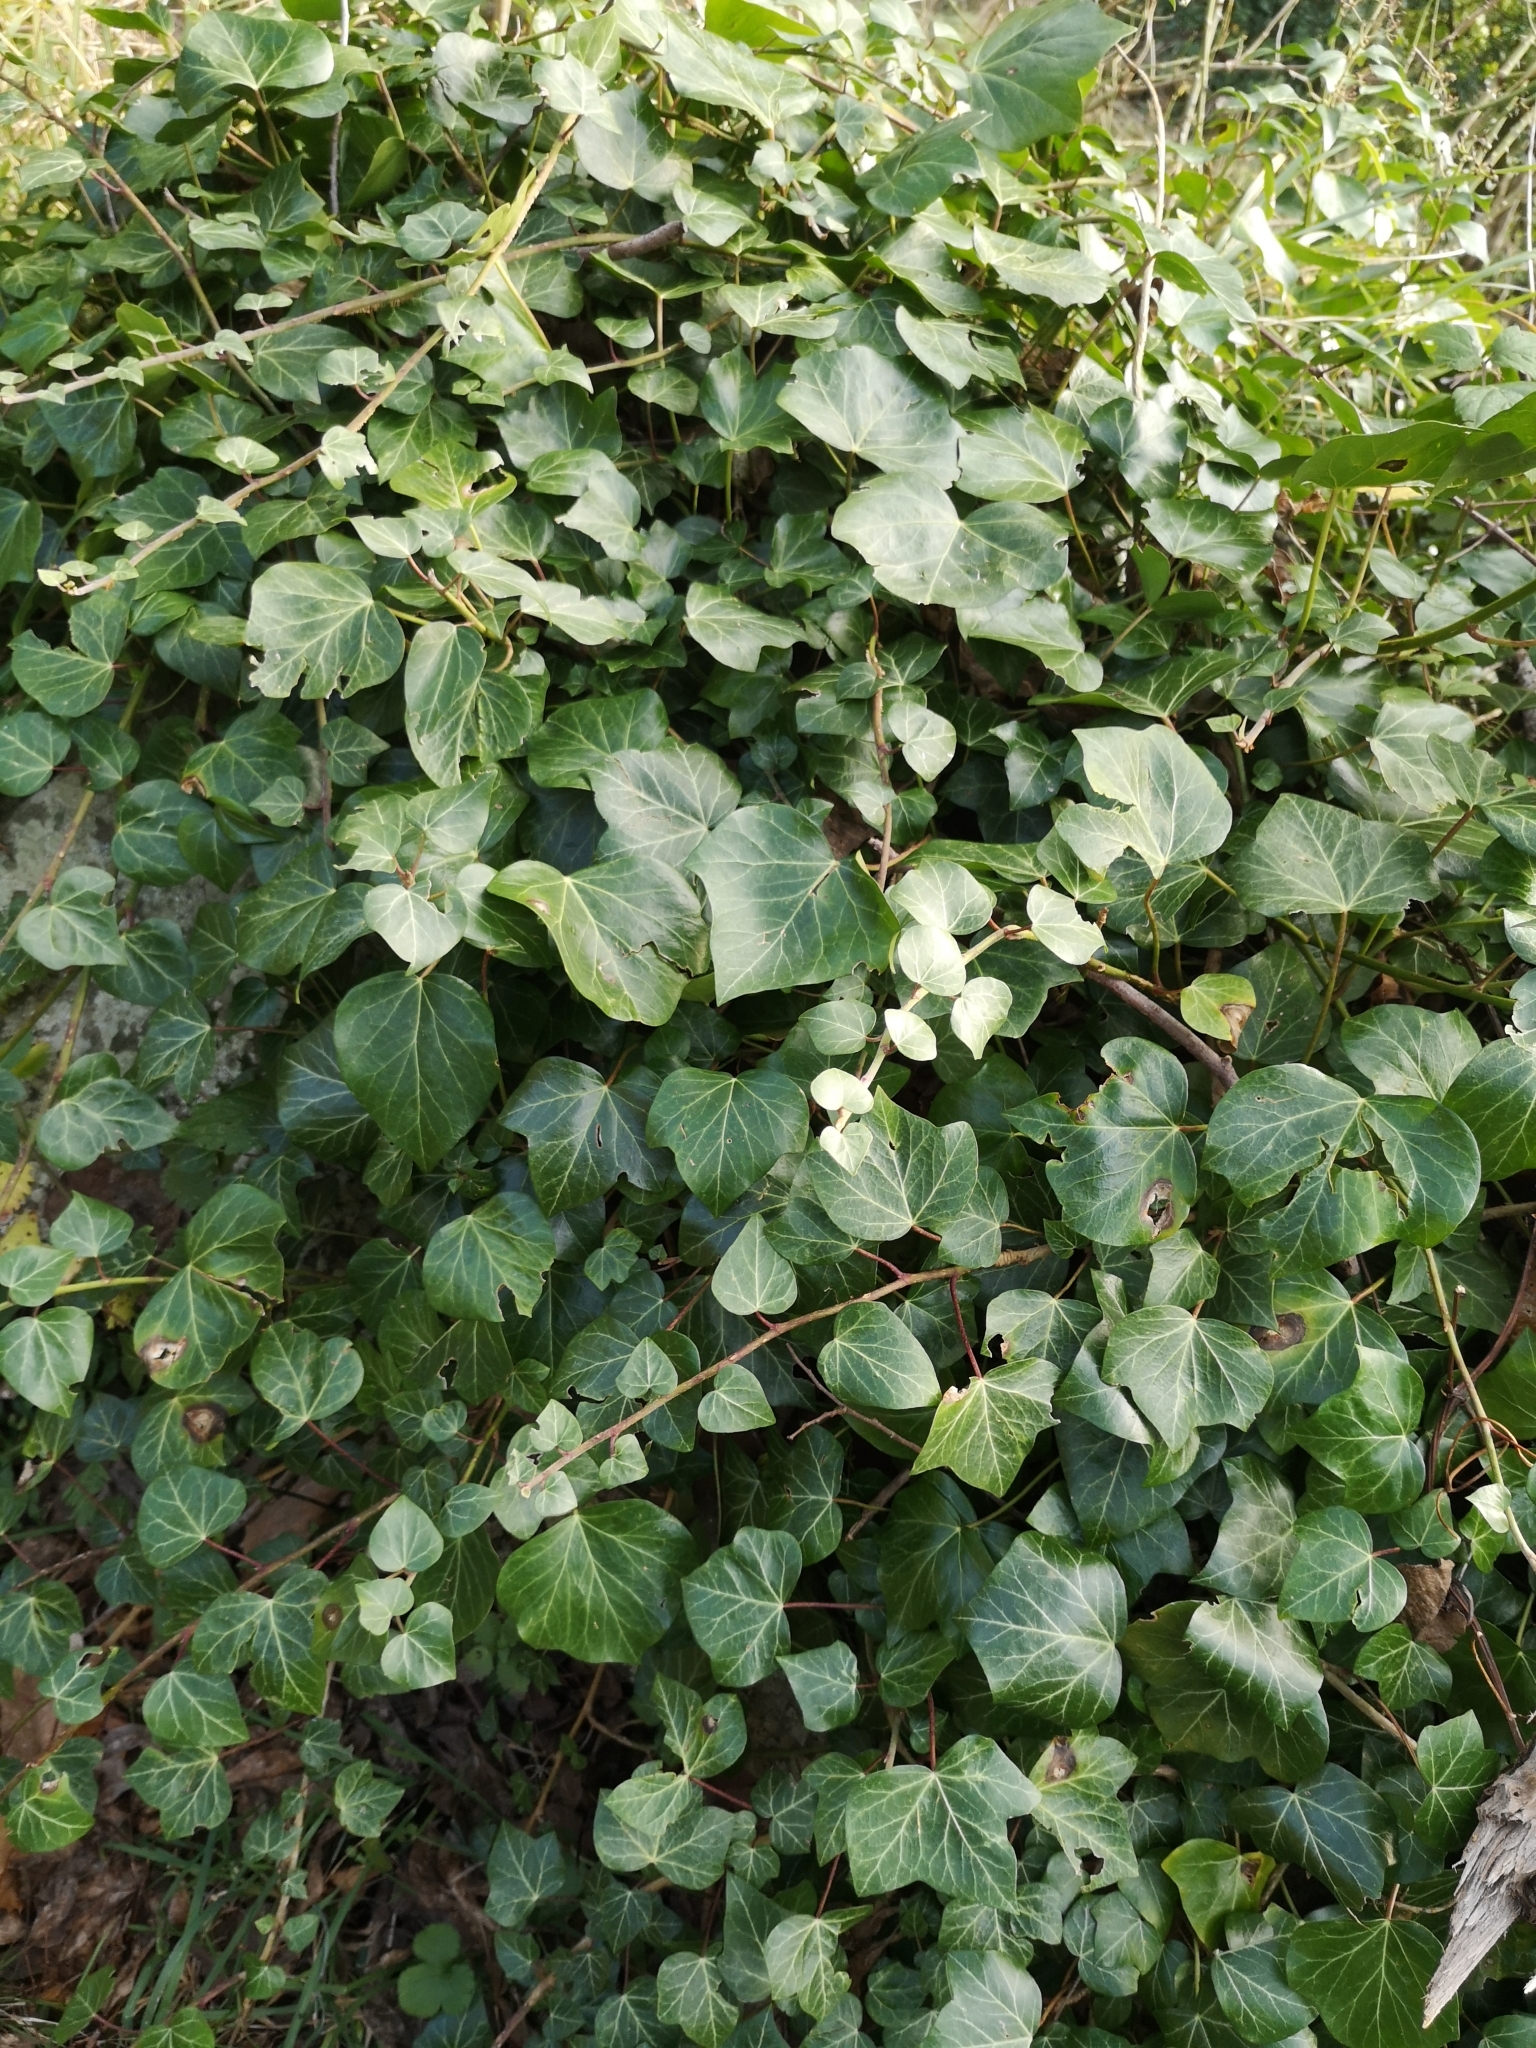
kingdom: Plantae
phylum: Tracheophyta
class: Magnoliopsida
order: Apiales
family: Araliaceae
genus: Hedera
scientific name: Hedera helix
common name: Ivy
